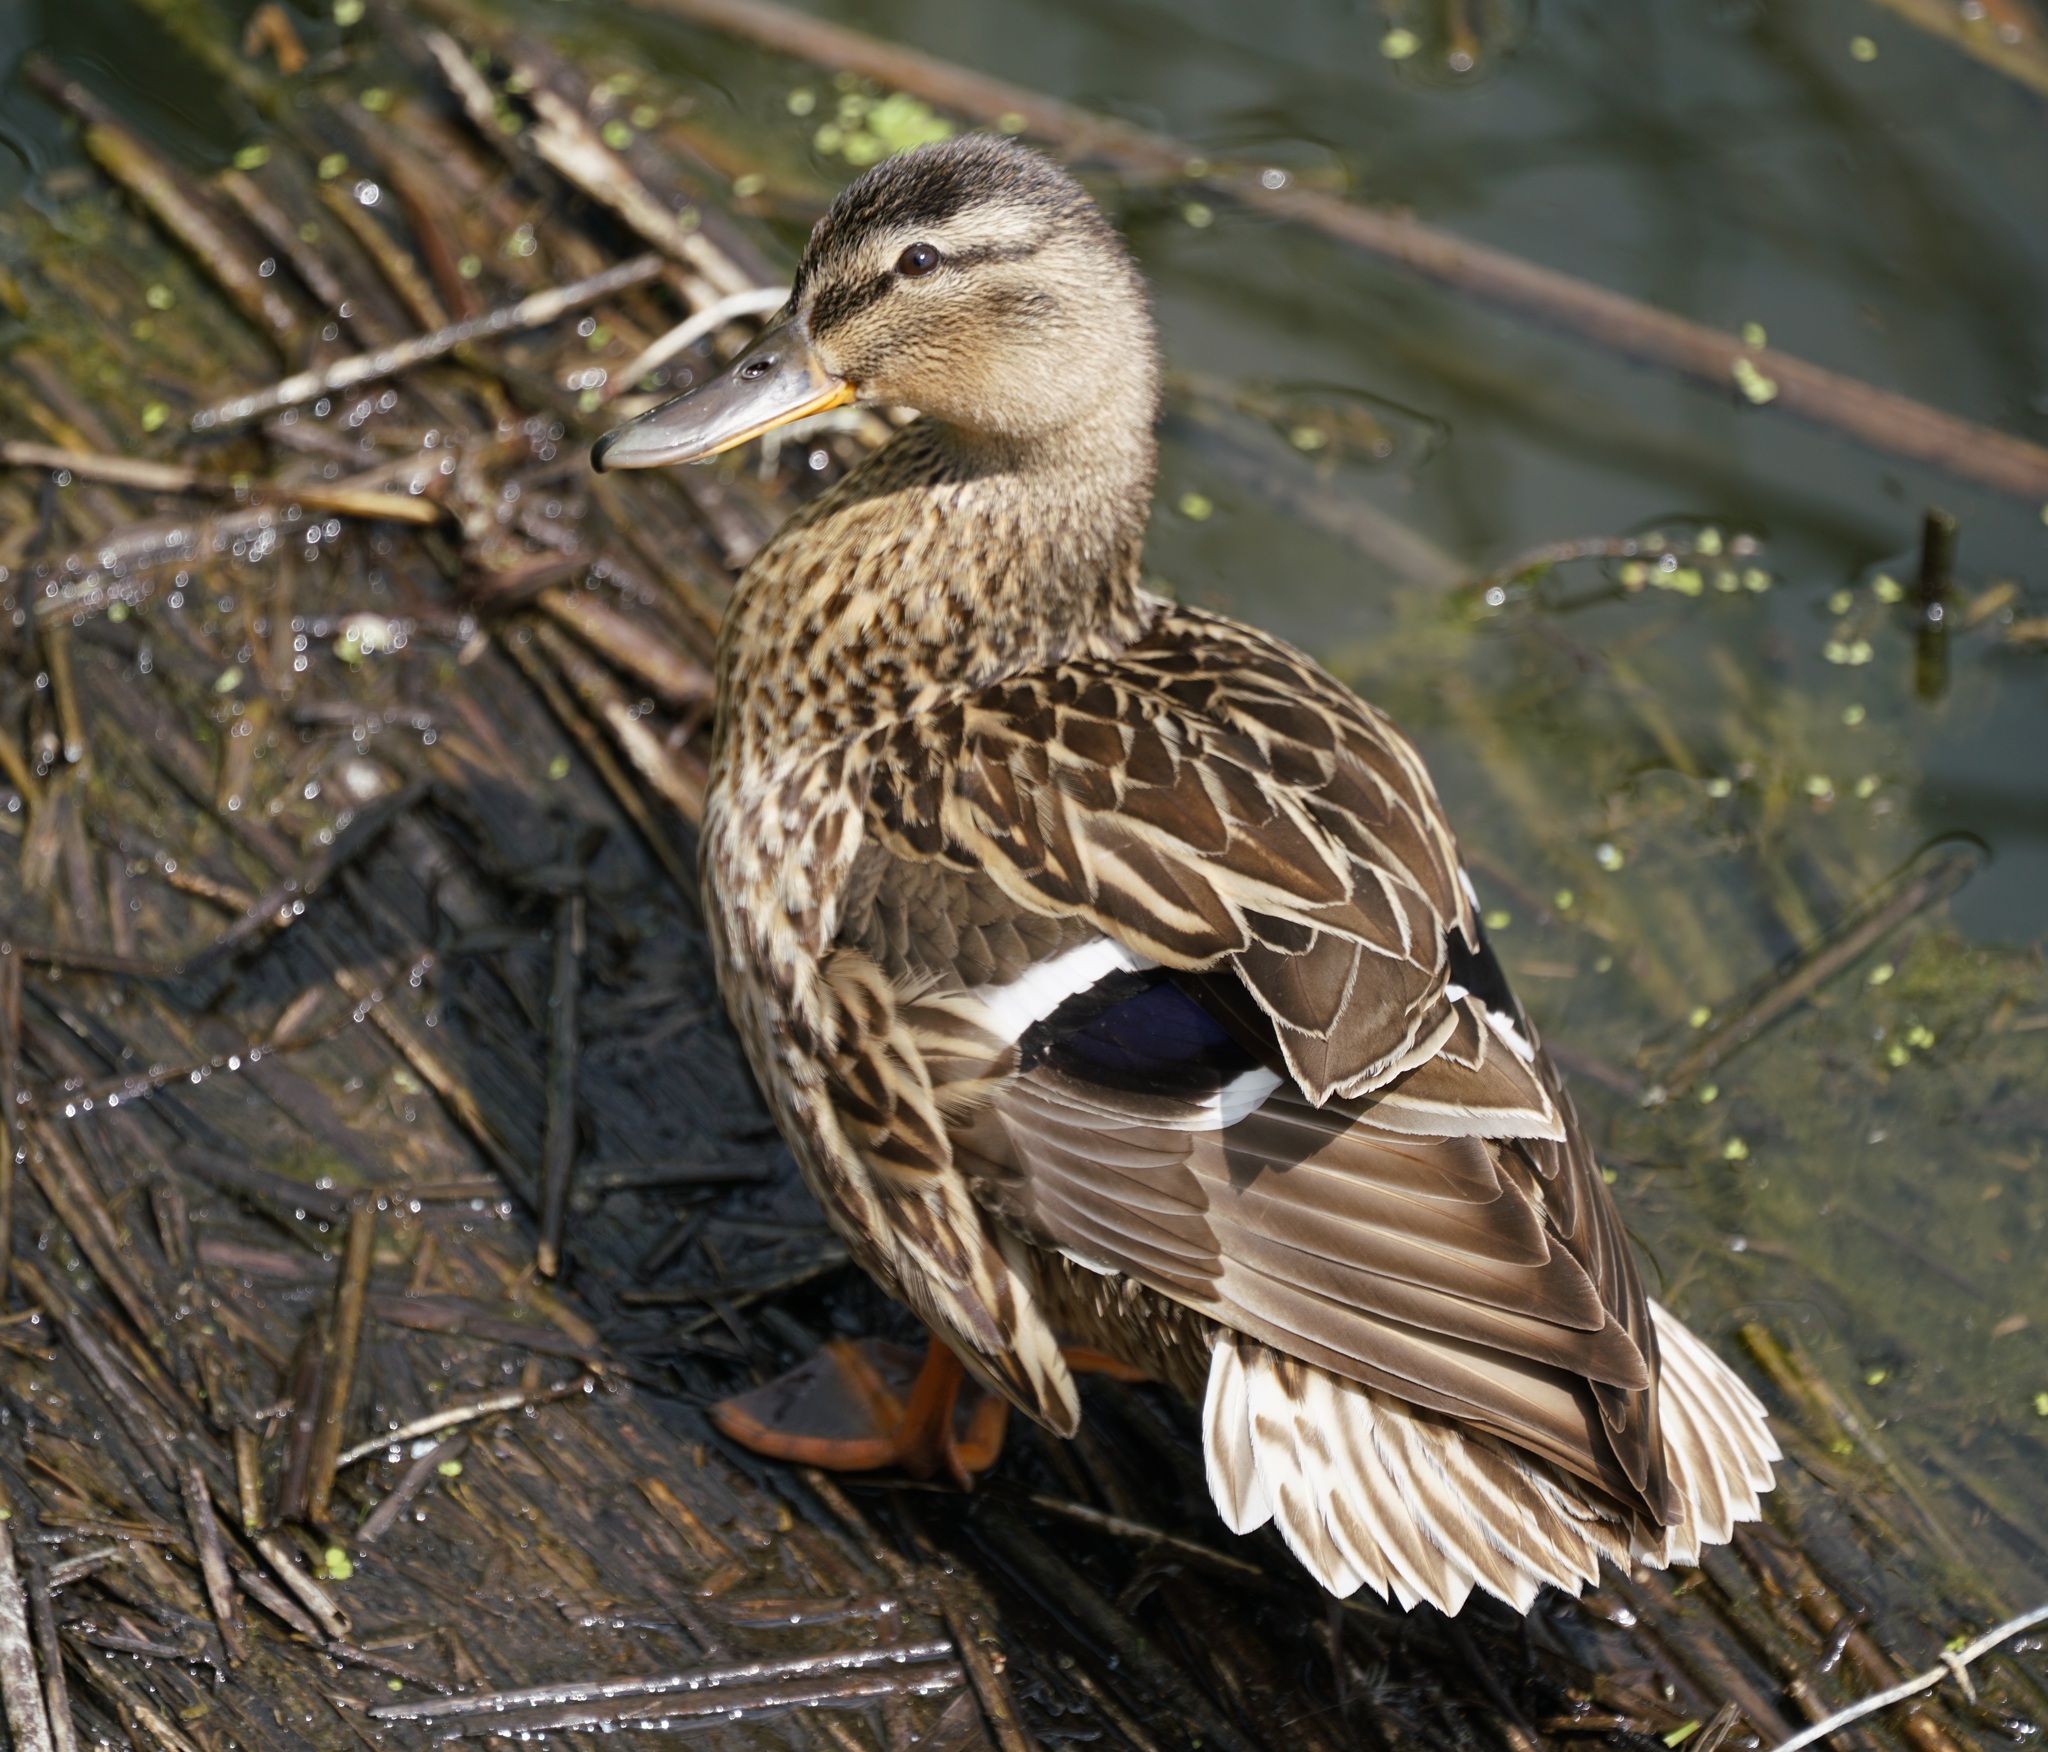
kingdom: Animalia
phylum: Chordata
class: Aves
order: Anseriformes
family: Anatidae
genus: Anas
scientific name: Anas platyrhynchos
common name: Mallard
